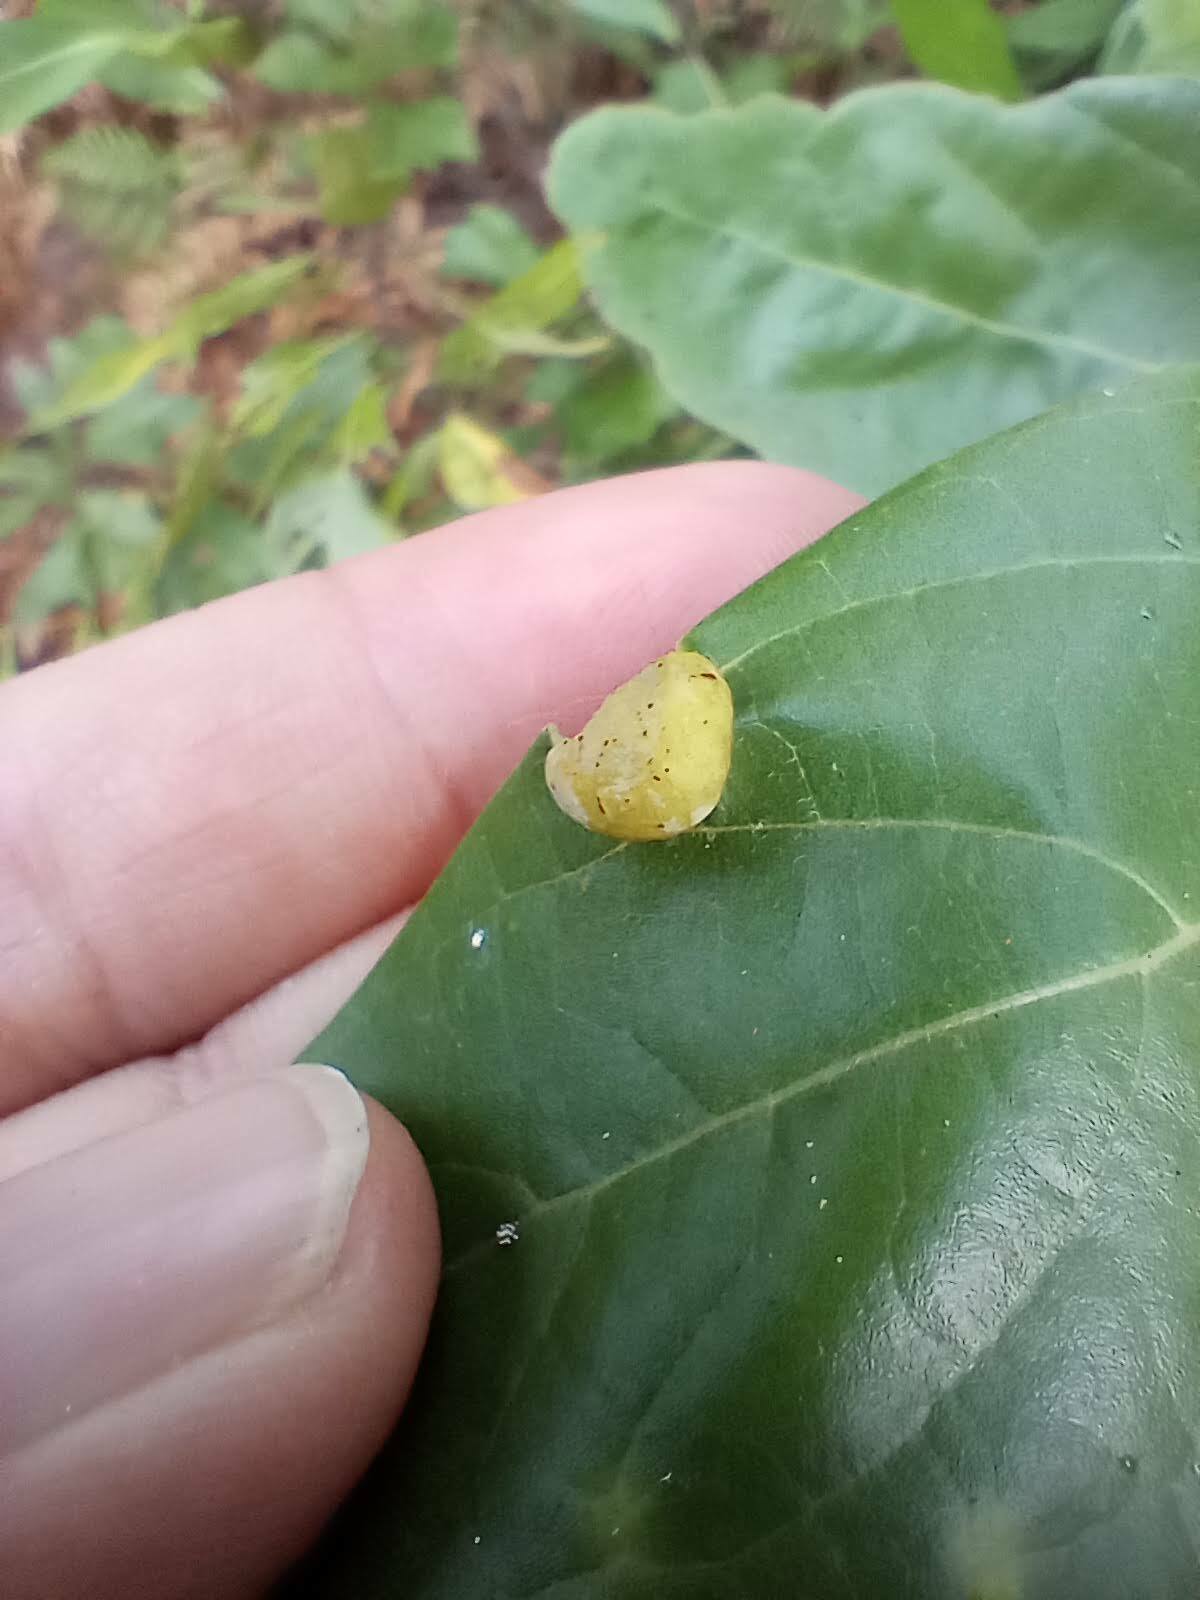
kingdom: Animalia
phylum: Arthropoda
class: Insecta
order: Hemiptera
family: Triozidae
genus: Trioza
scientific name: Trioza magnoliae
